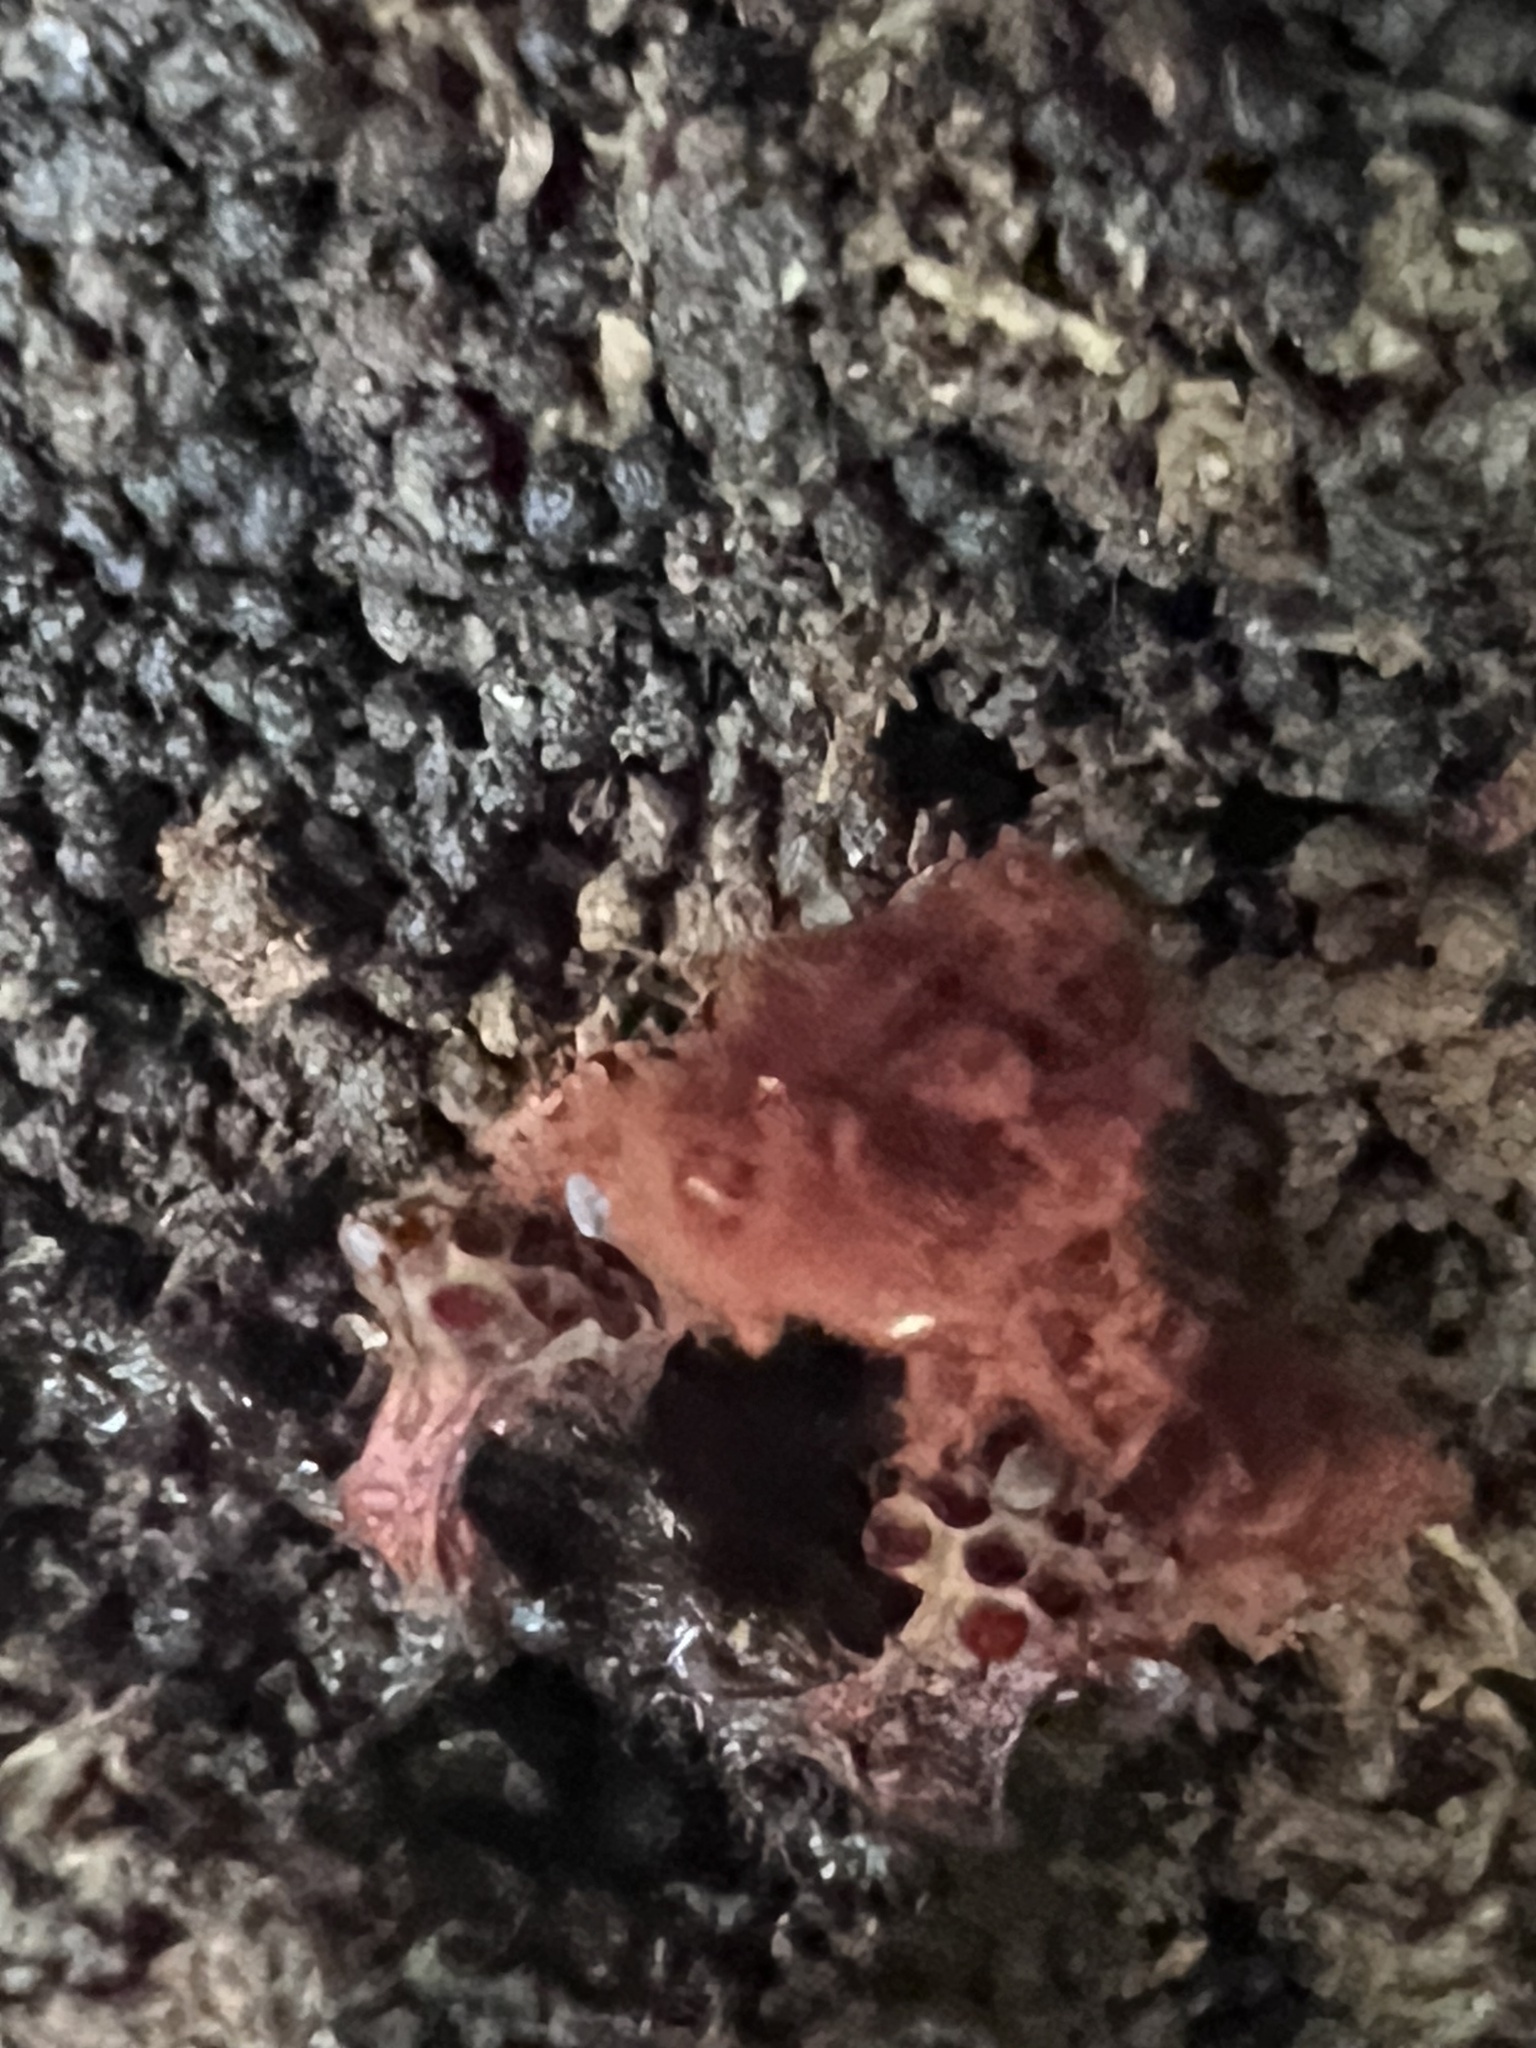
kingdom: Protozoa
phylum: Mycetozoa
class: Myxomycetes
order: Trichiales
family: Trichiaceae
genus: Metatrichia
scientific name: Metatrichia vesparia
